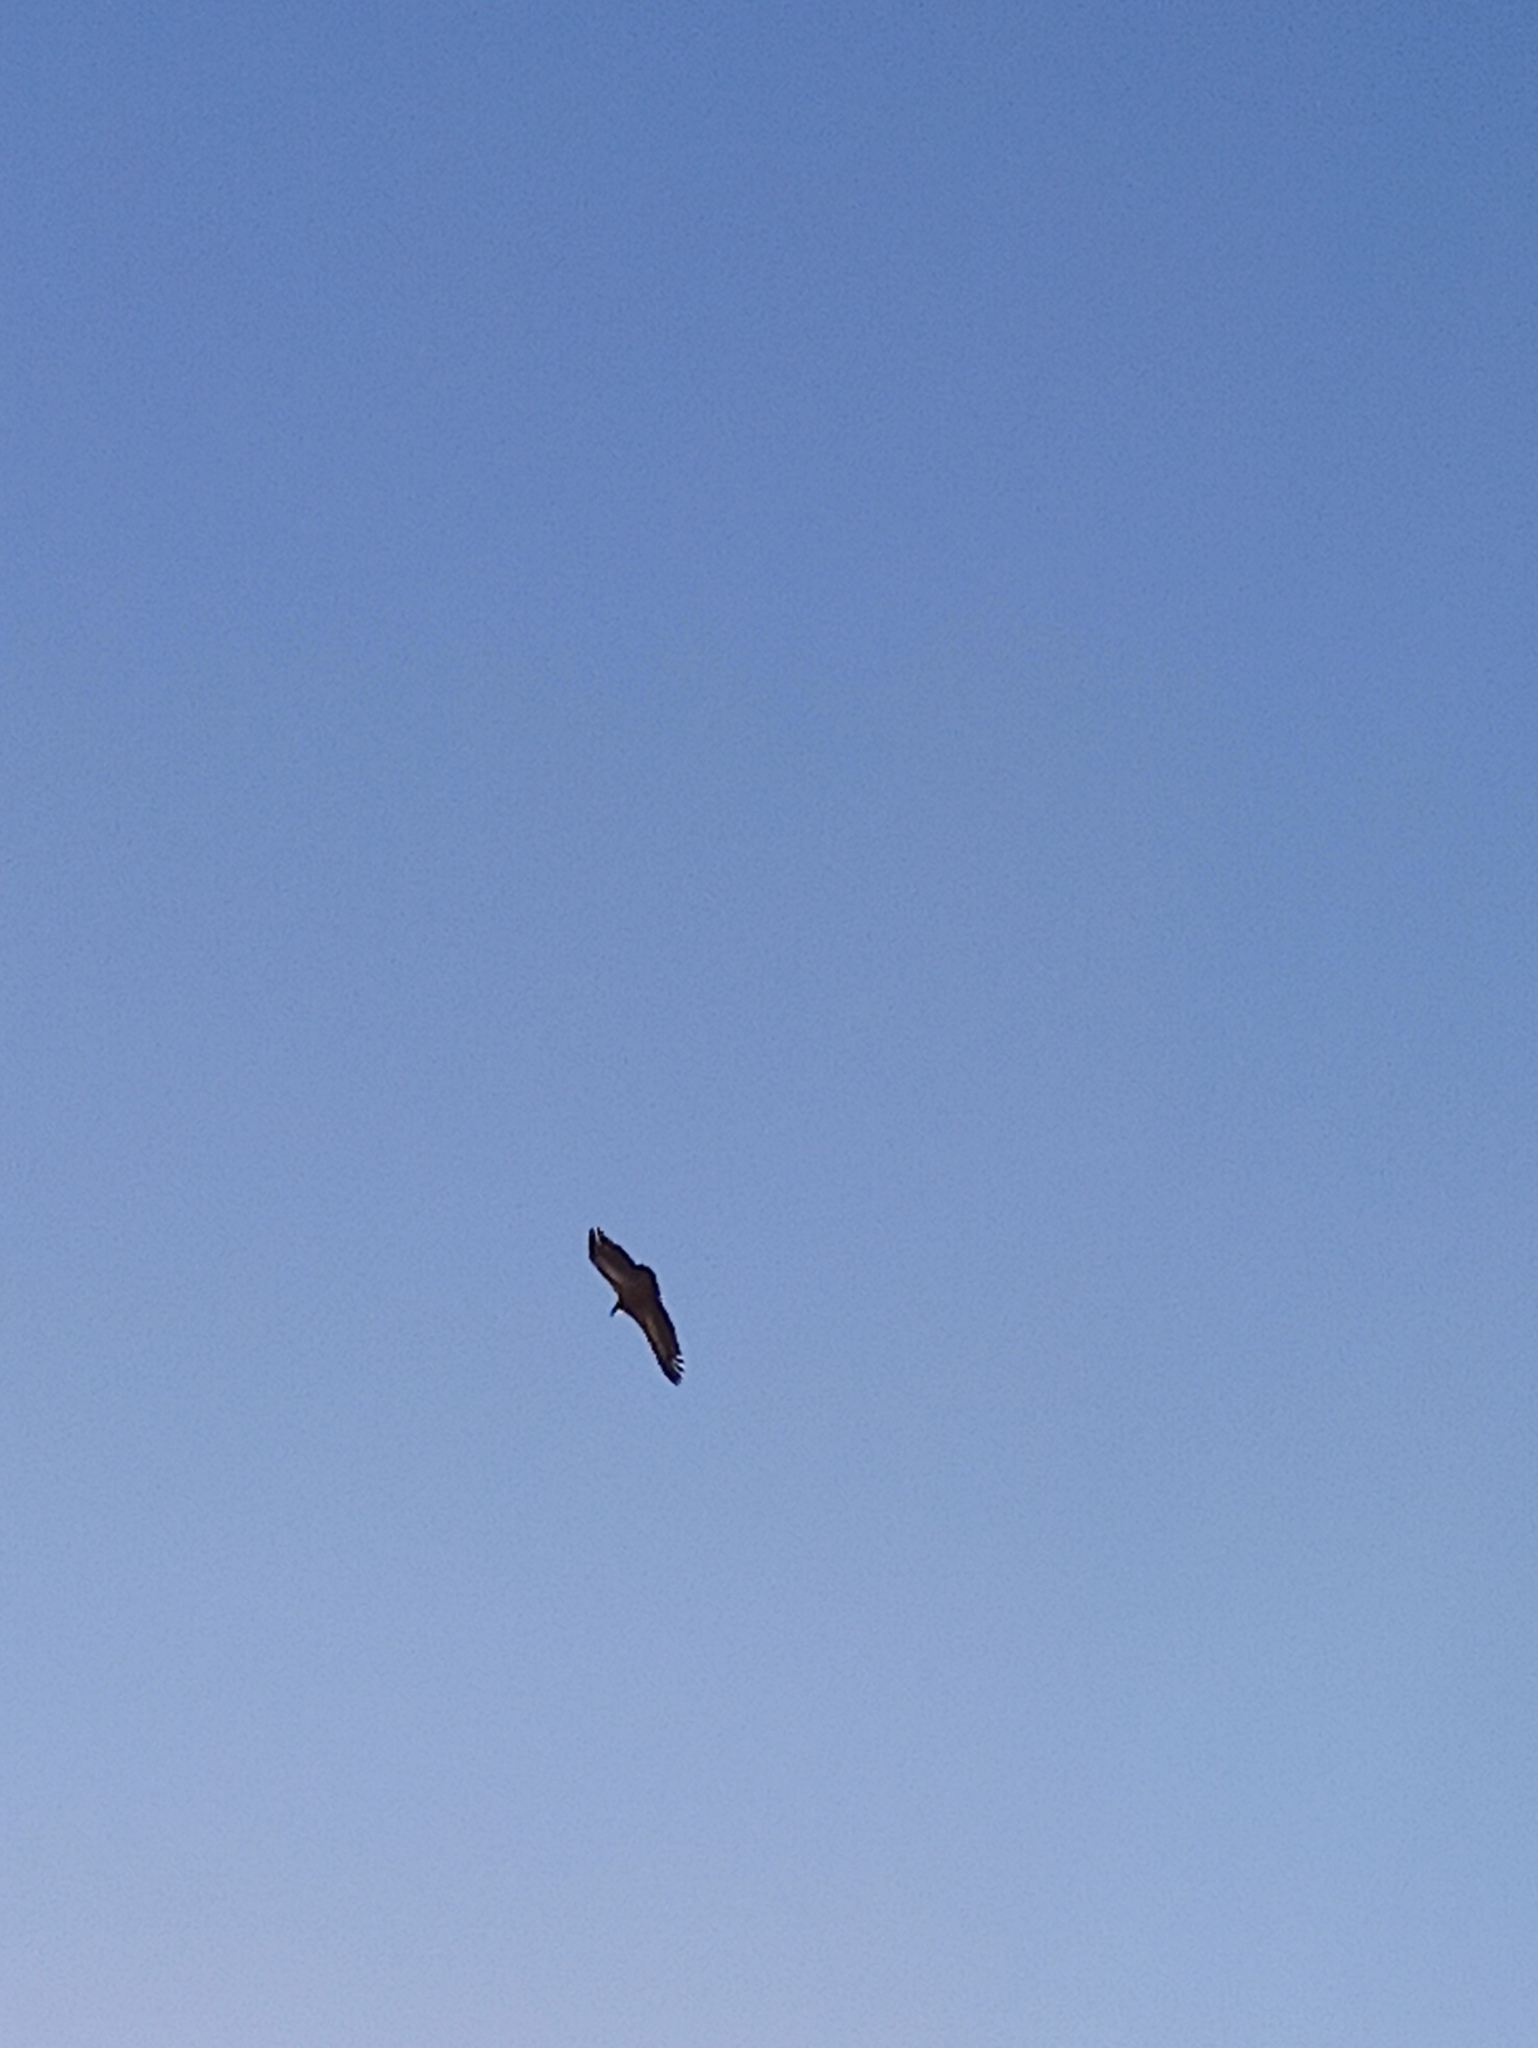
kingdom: Animalia
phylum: Chordata
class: Aves
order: Accipitriformes
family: Accipitridae
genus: Gyps
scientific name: Gyps fulvus
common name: Griffon vulture
